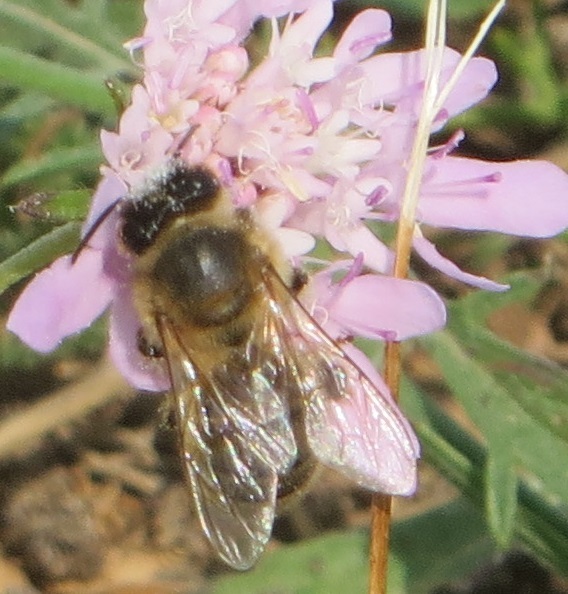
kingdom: Animalia
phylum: Arthropoda
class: Insecta
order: Hymenoptera
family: Apidae
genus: Apis
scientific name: Apis mellifera
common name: Honey bee
